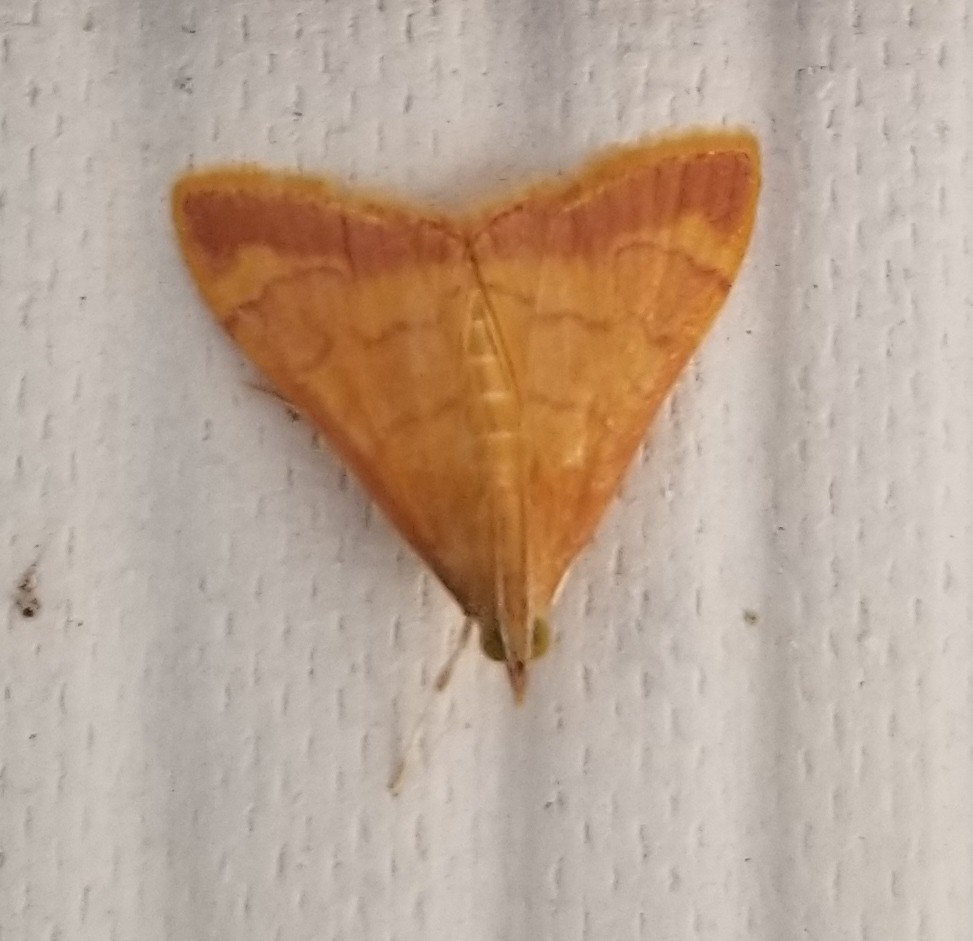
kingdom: Animalia
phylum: Arthropoda
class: Insecta
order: Lepidoptera
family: Crambidae
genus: Pyrausta
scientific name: Pyrausta pseudonythesalis
